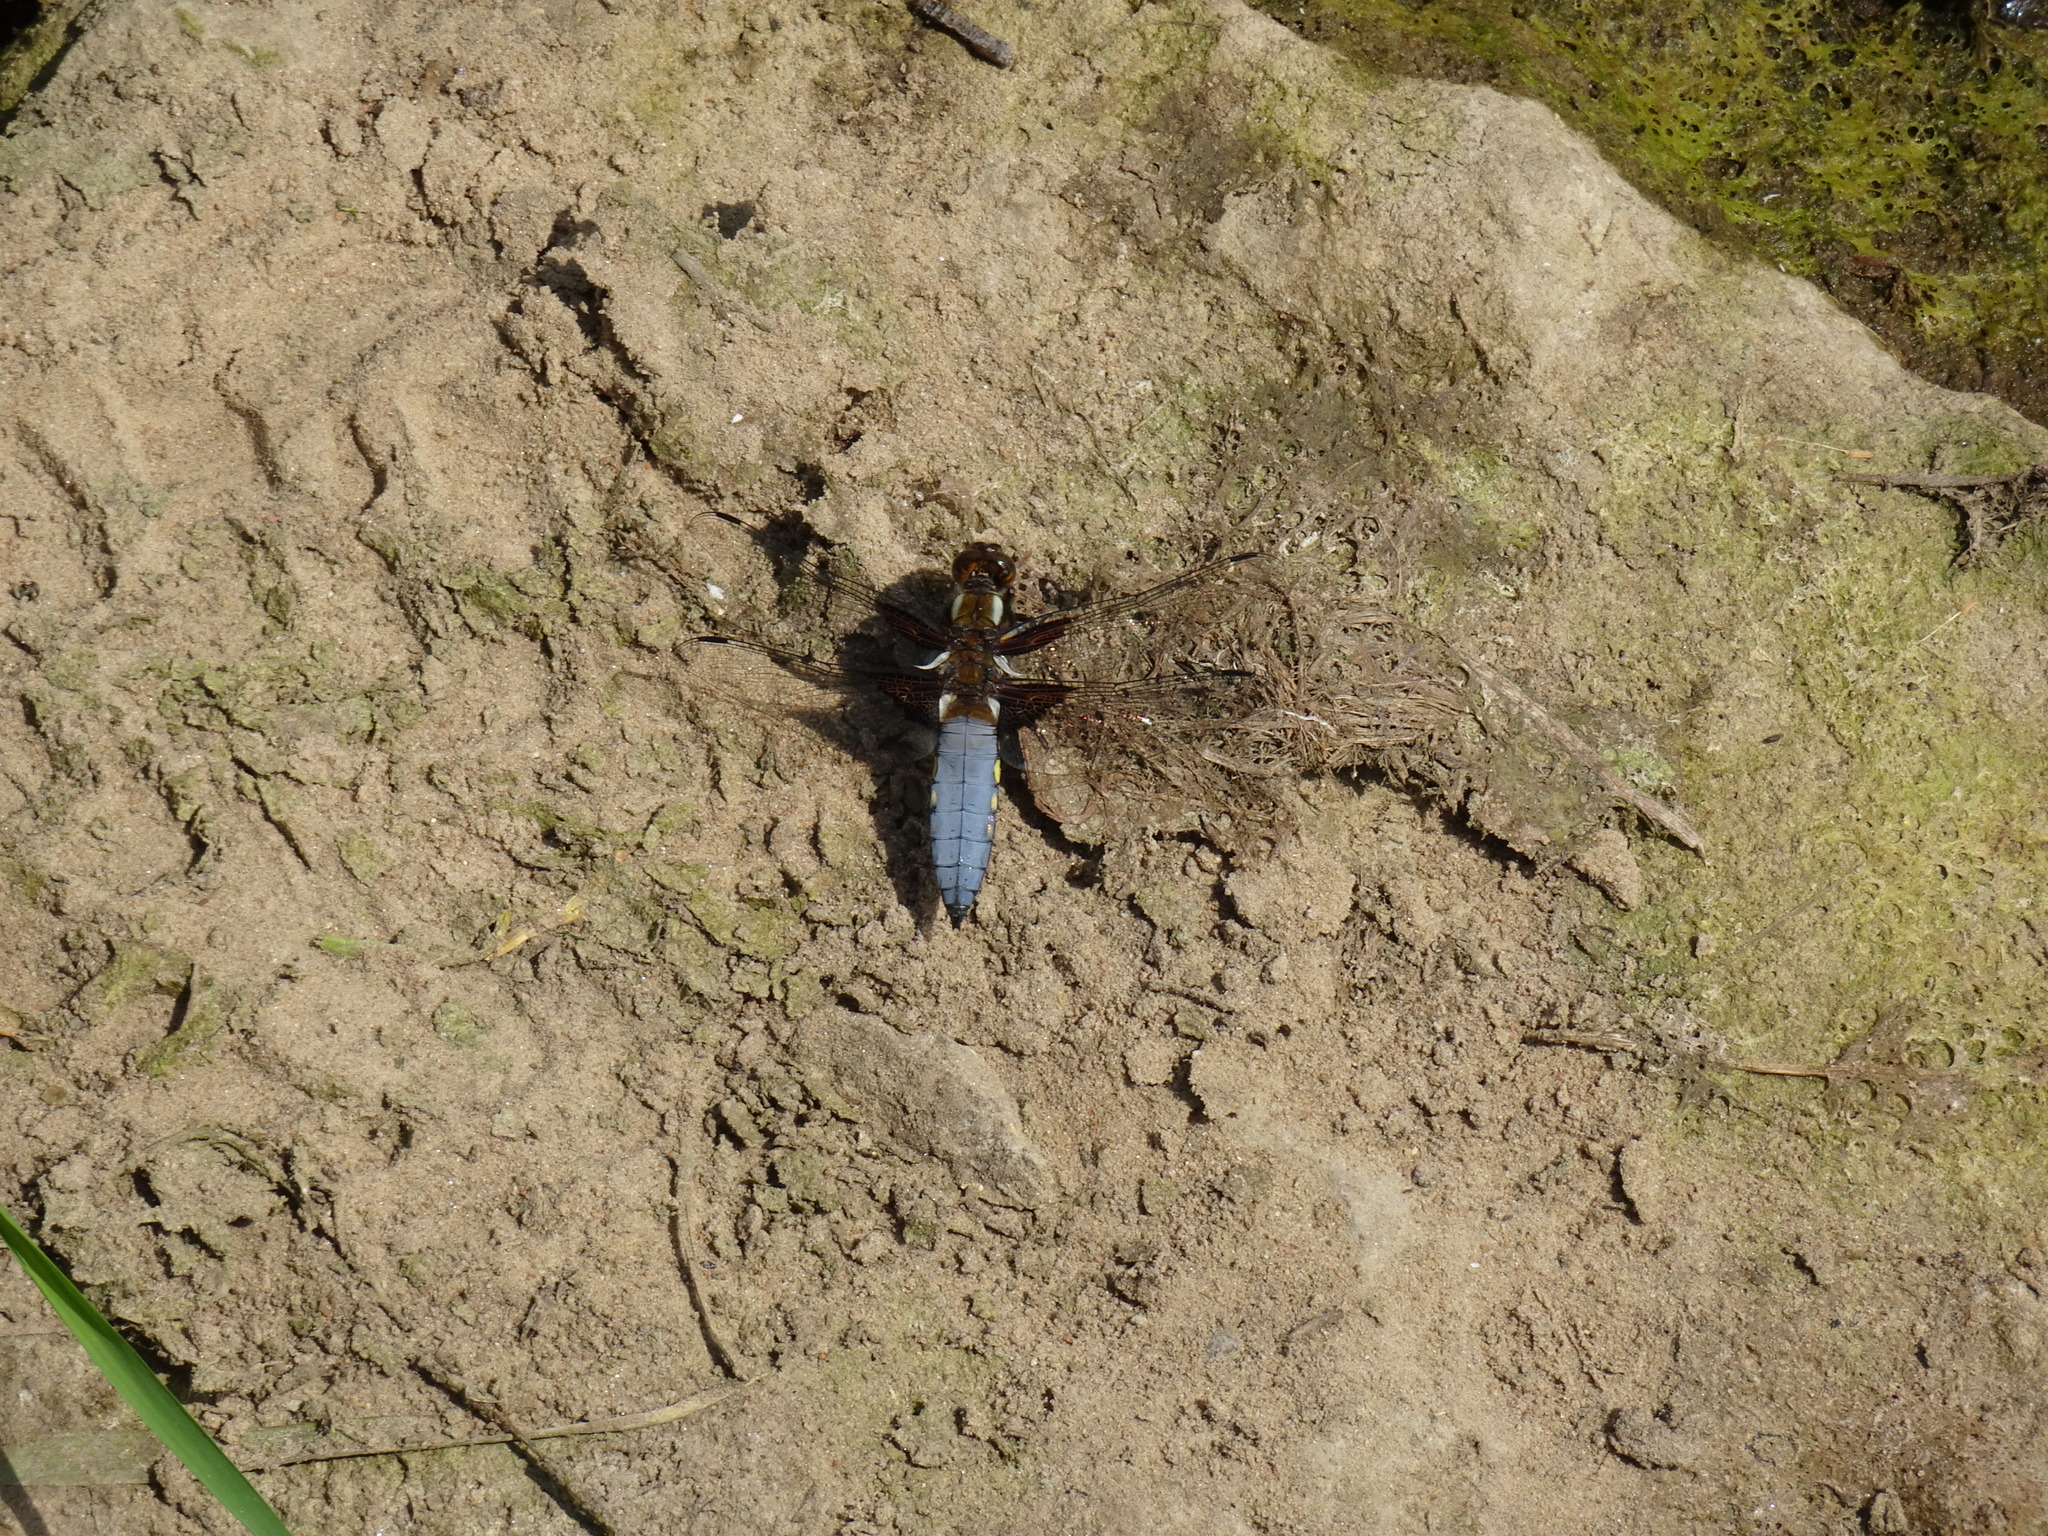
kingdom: Animalia
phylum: Arthropoda
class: Insecta
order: Odonata
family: Libellulidae
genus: Libellula
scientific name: Libellula depressa
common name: Broad-bodied chaser
